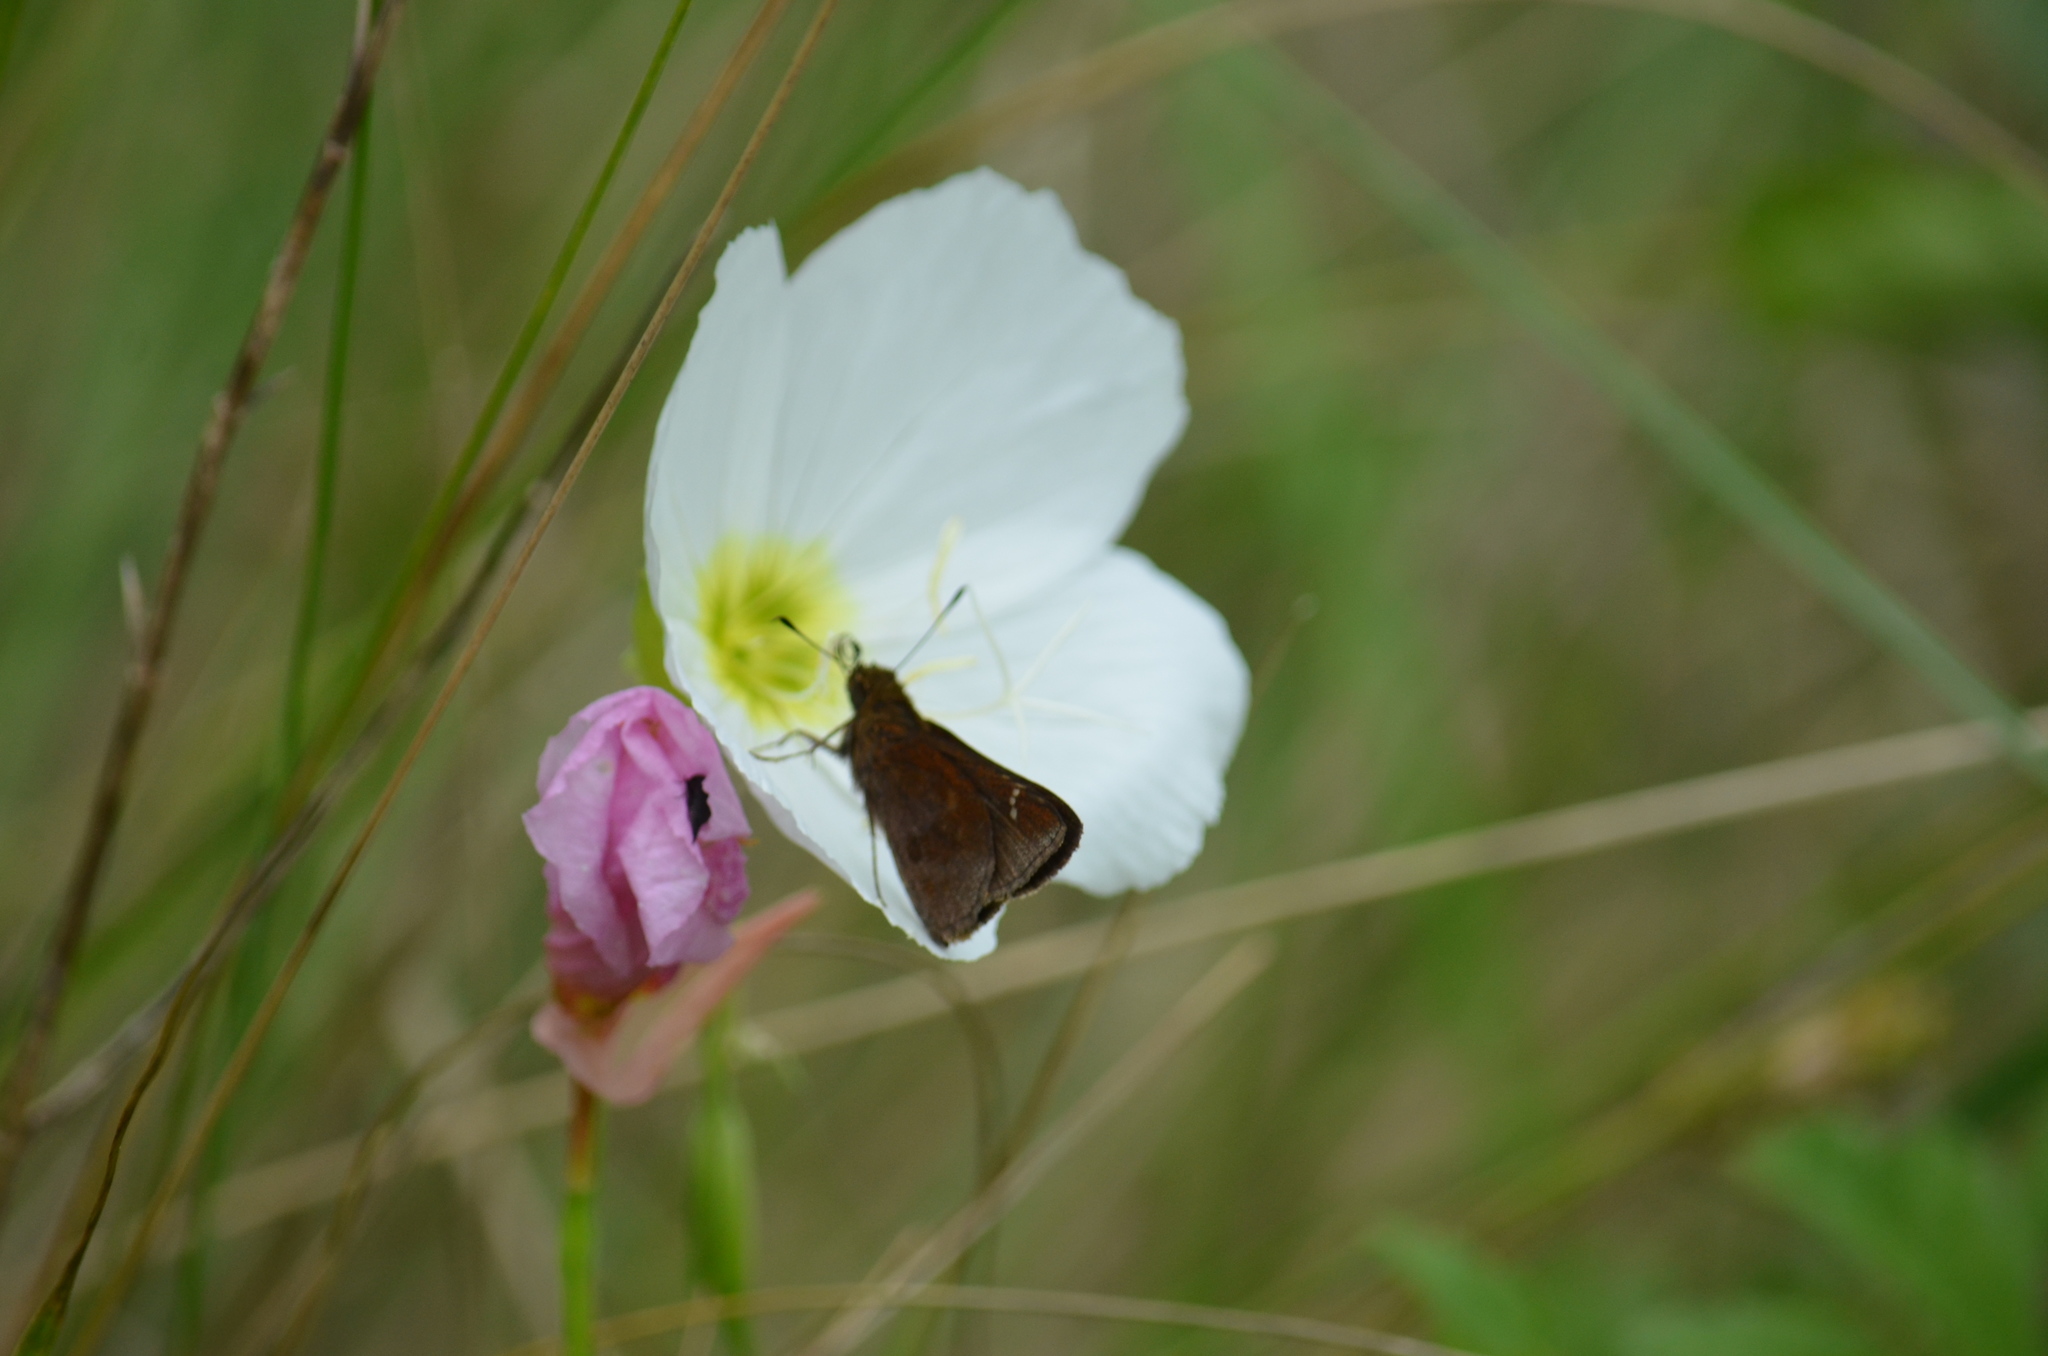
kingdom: Animalia
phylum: Arthropoda
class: Insecta
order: Lepidoptera
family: Hesperiidae
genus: Lerema
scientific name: Lerema accius
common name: Clouded skipper
